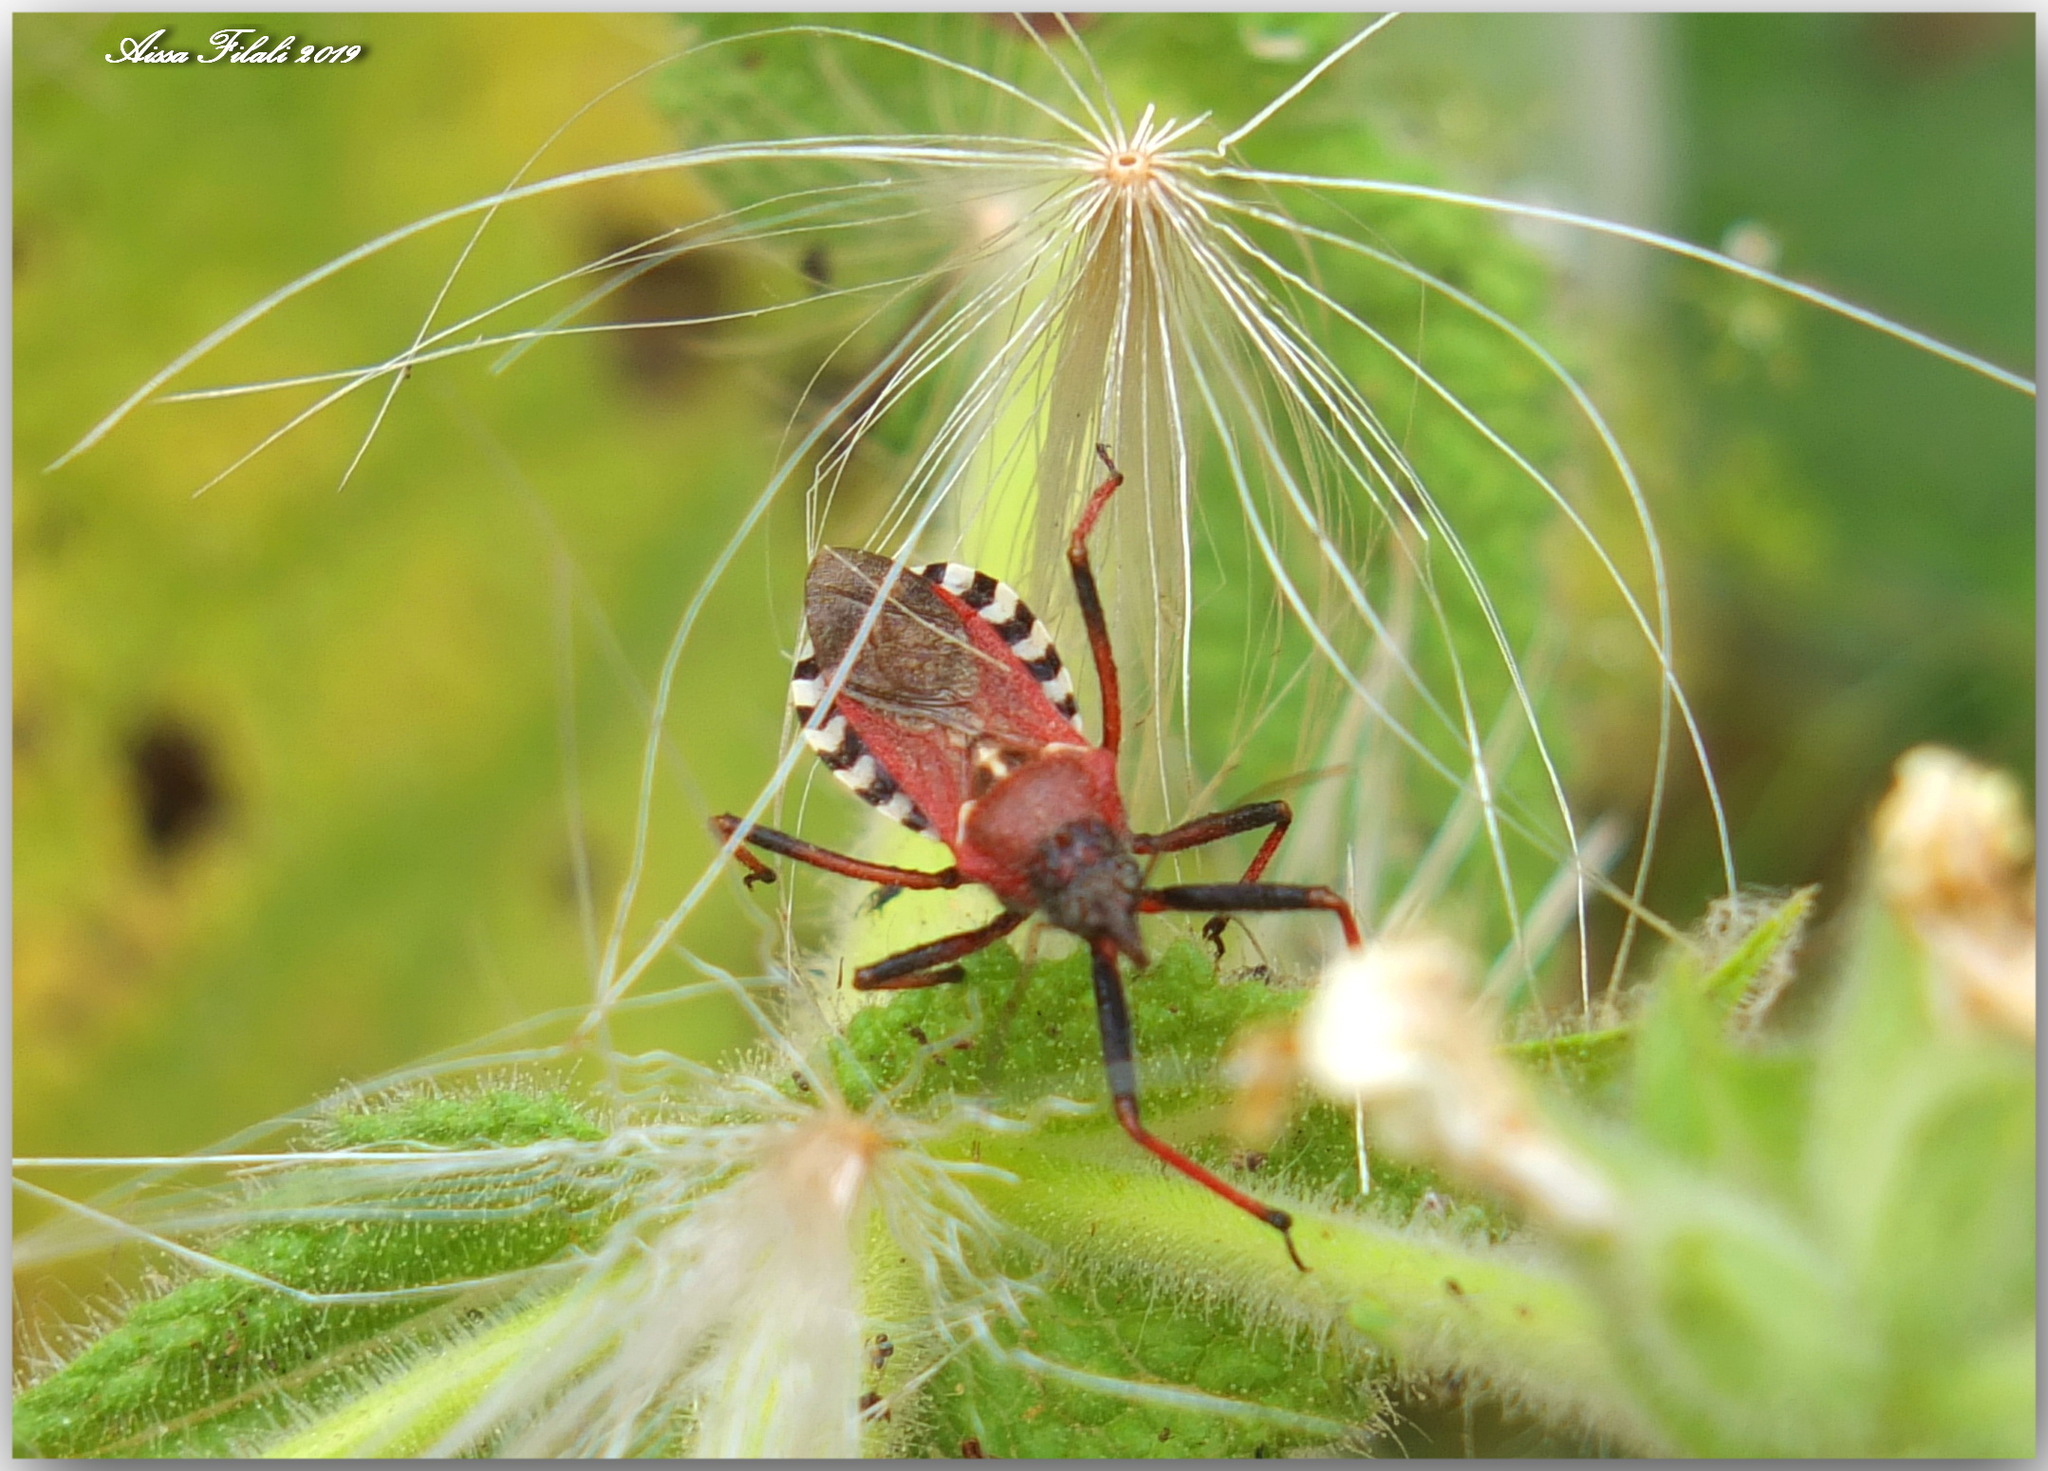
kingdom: Animalia
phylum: Arthropoda
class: Insecta
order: Hemiptera
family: Reduviidae
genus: Rhynocoris
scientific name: Rhynocoris erythropus
